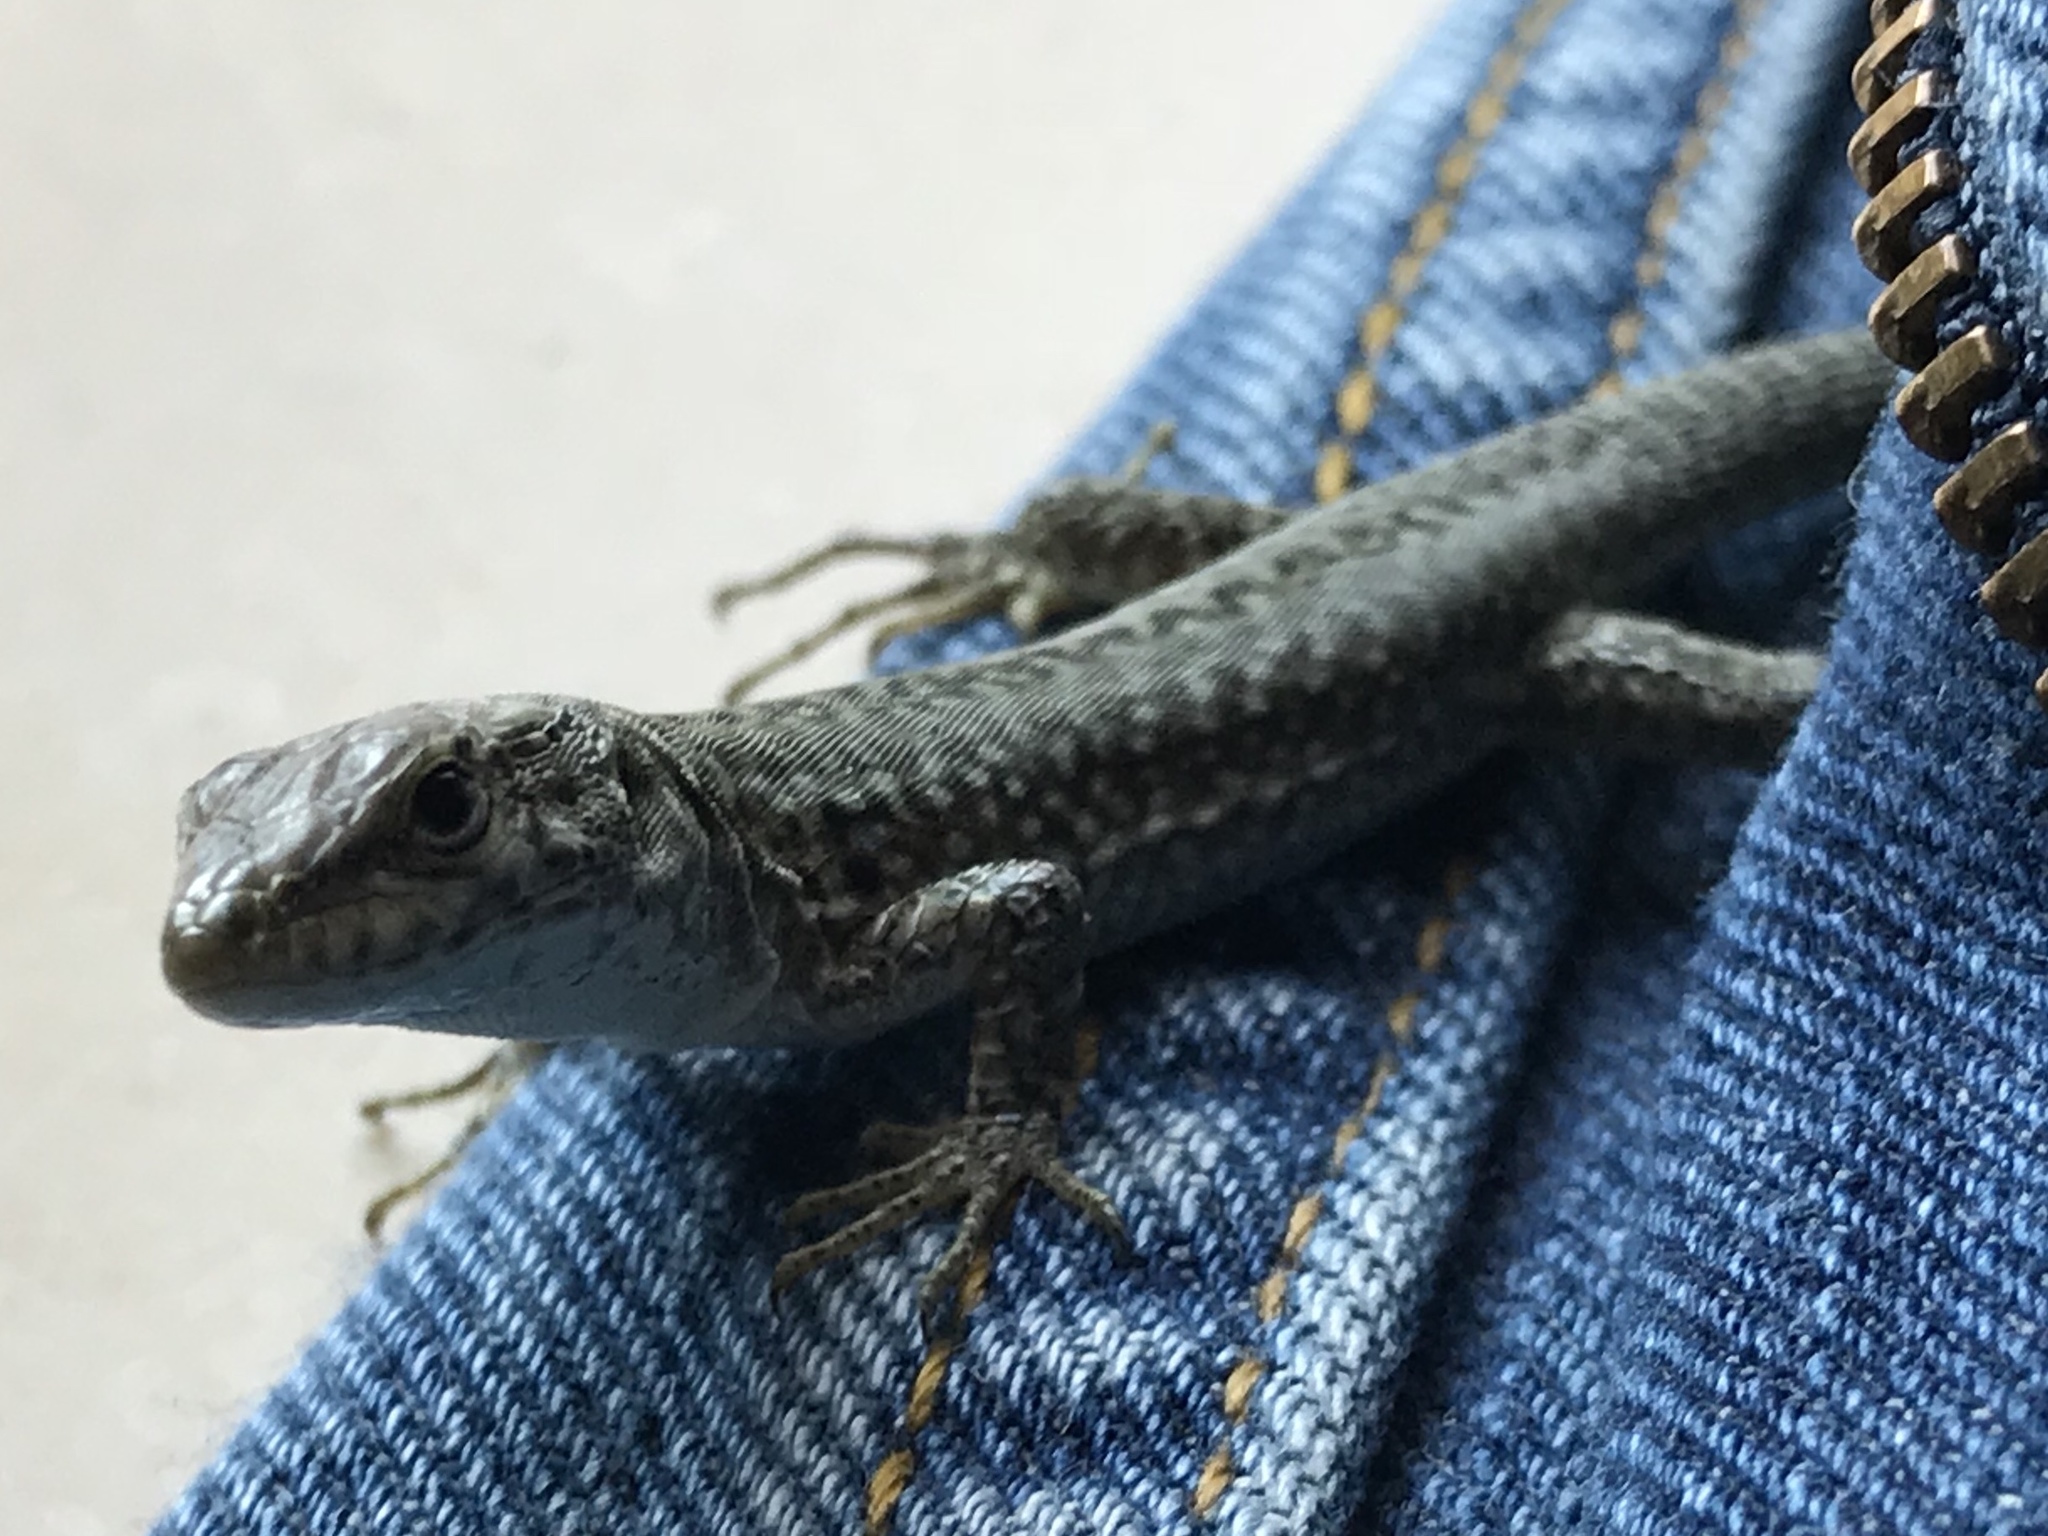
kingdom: Animalia
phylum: Chordata
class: Squamata
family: Lacertidae
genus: Podarcis
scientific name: Podarcis siculus
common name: Italian wall lizard
